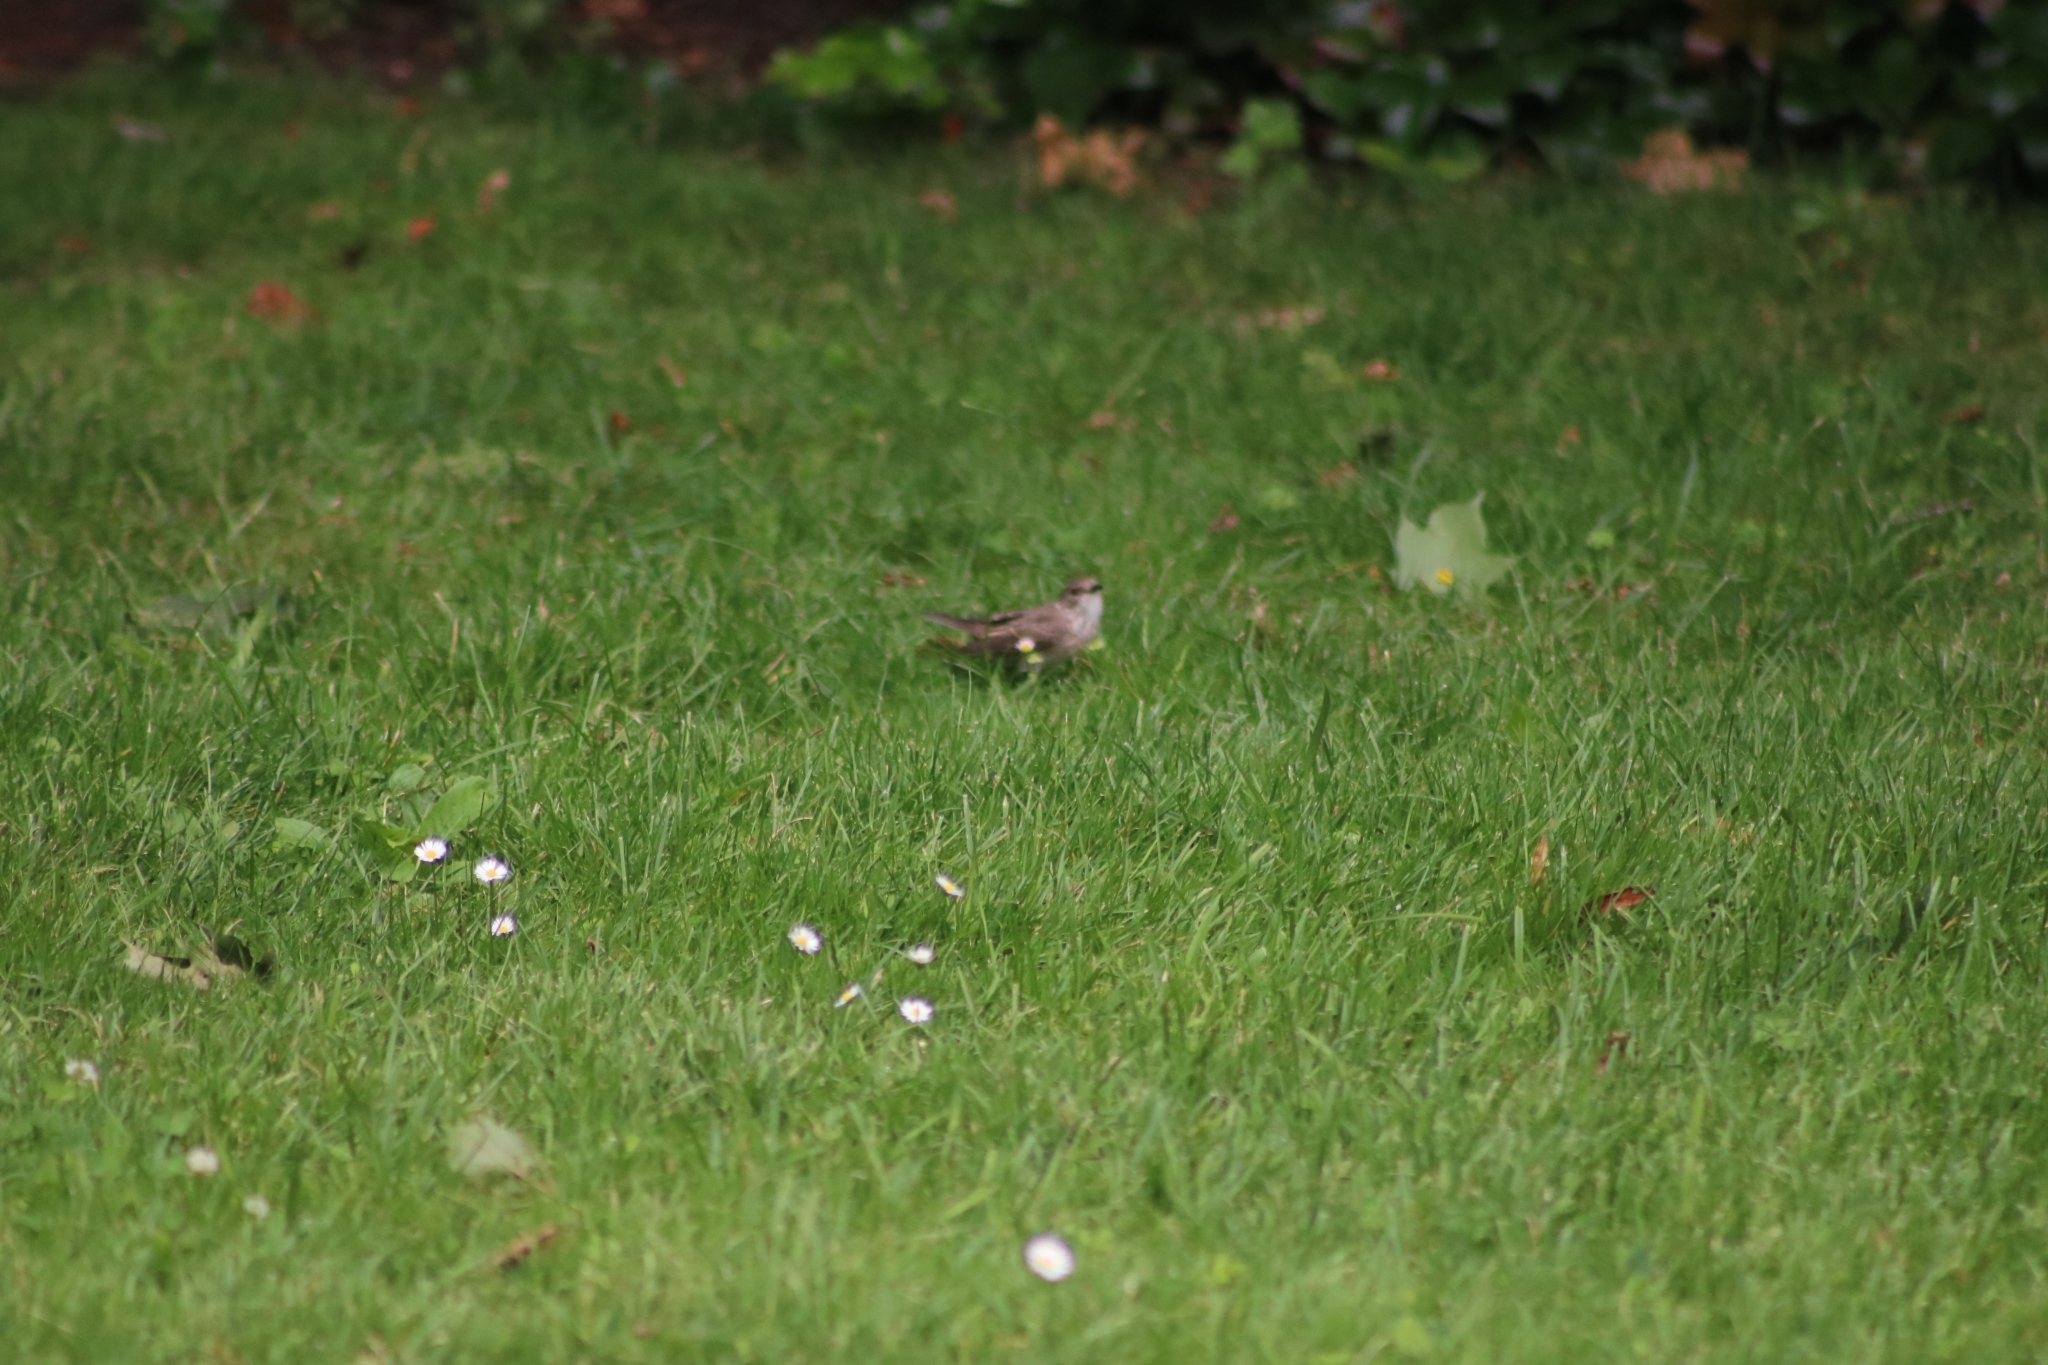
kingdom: Animalia
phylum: Chordata
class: Aves
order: Passeriformes
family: Muscicapidae
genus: Muscicapa
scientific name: Muscicapa striata
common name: Spotted flycatcher
